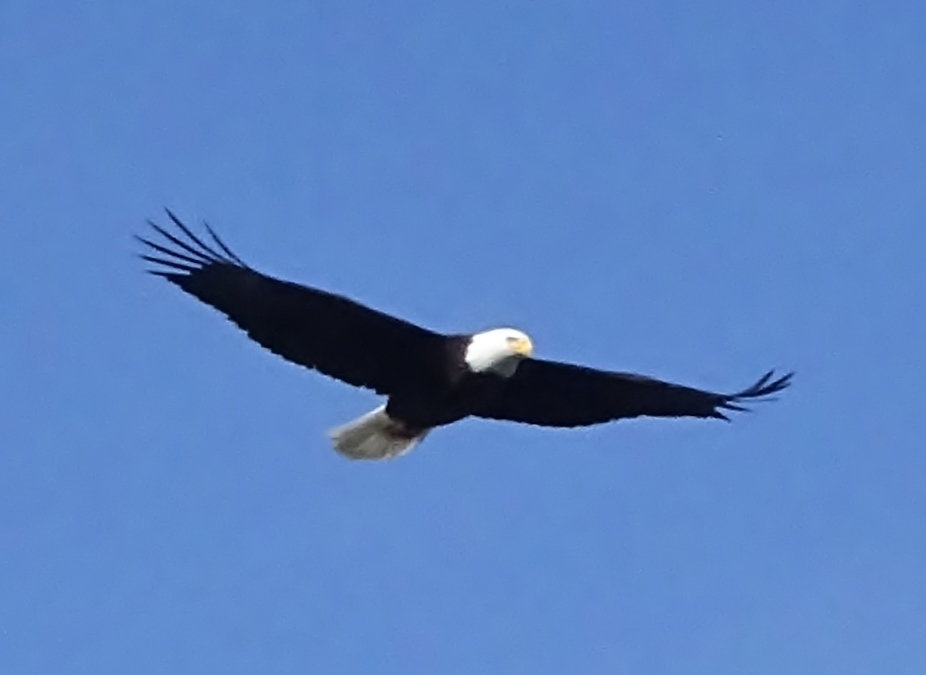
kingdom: Animalia
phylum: Chordata
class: Aves
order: Accipitriformes
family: Accipitridae
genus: Haliaeetus
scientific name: Haliaeetus leucocephalus
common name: Bald eagle
